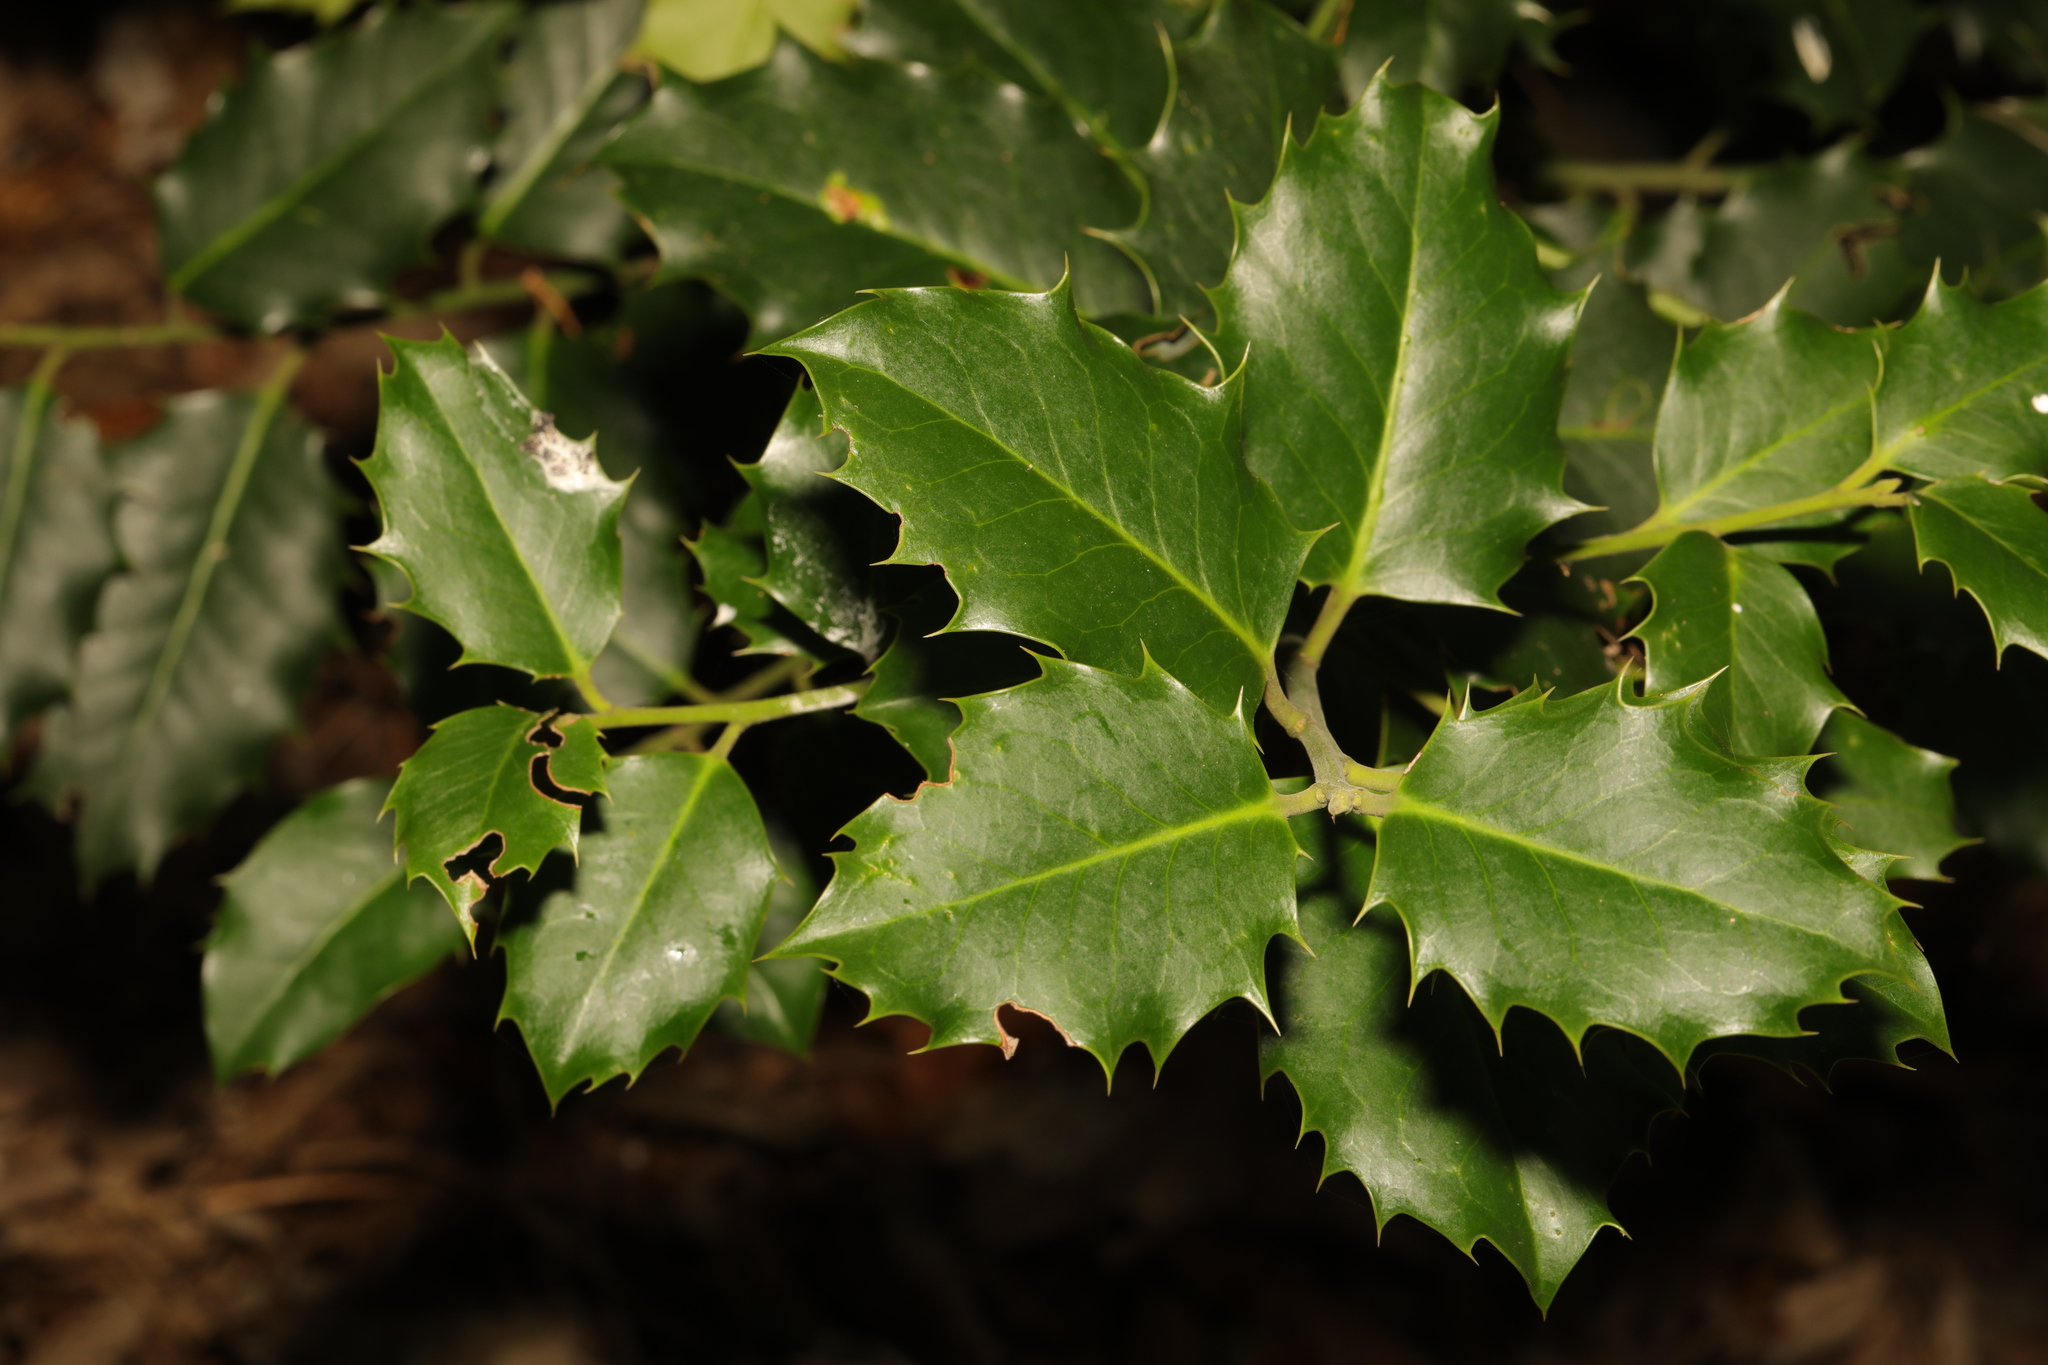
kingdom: Plantae
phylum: Tracheophyta
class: Magnoliopsida
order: Aquifoliales
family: Aquifoliaceae
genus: Ilex
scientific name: Ilex aquifolium
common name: English holly
